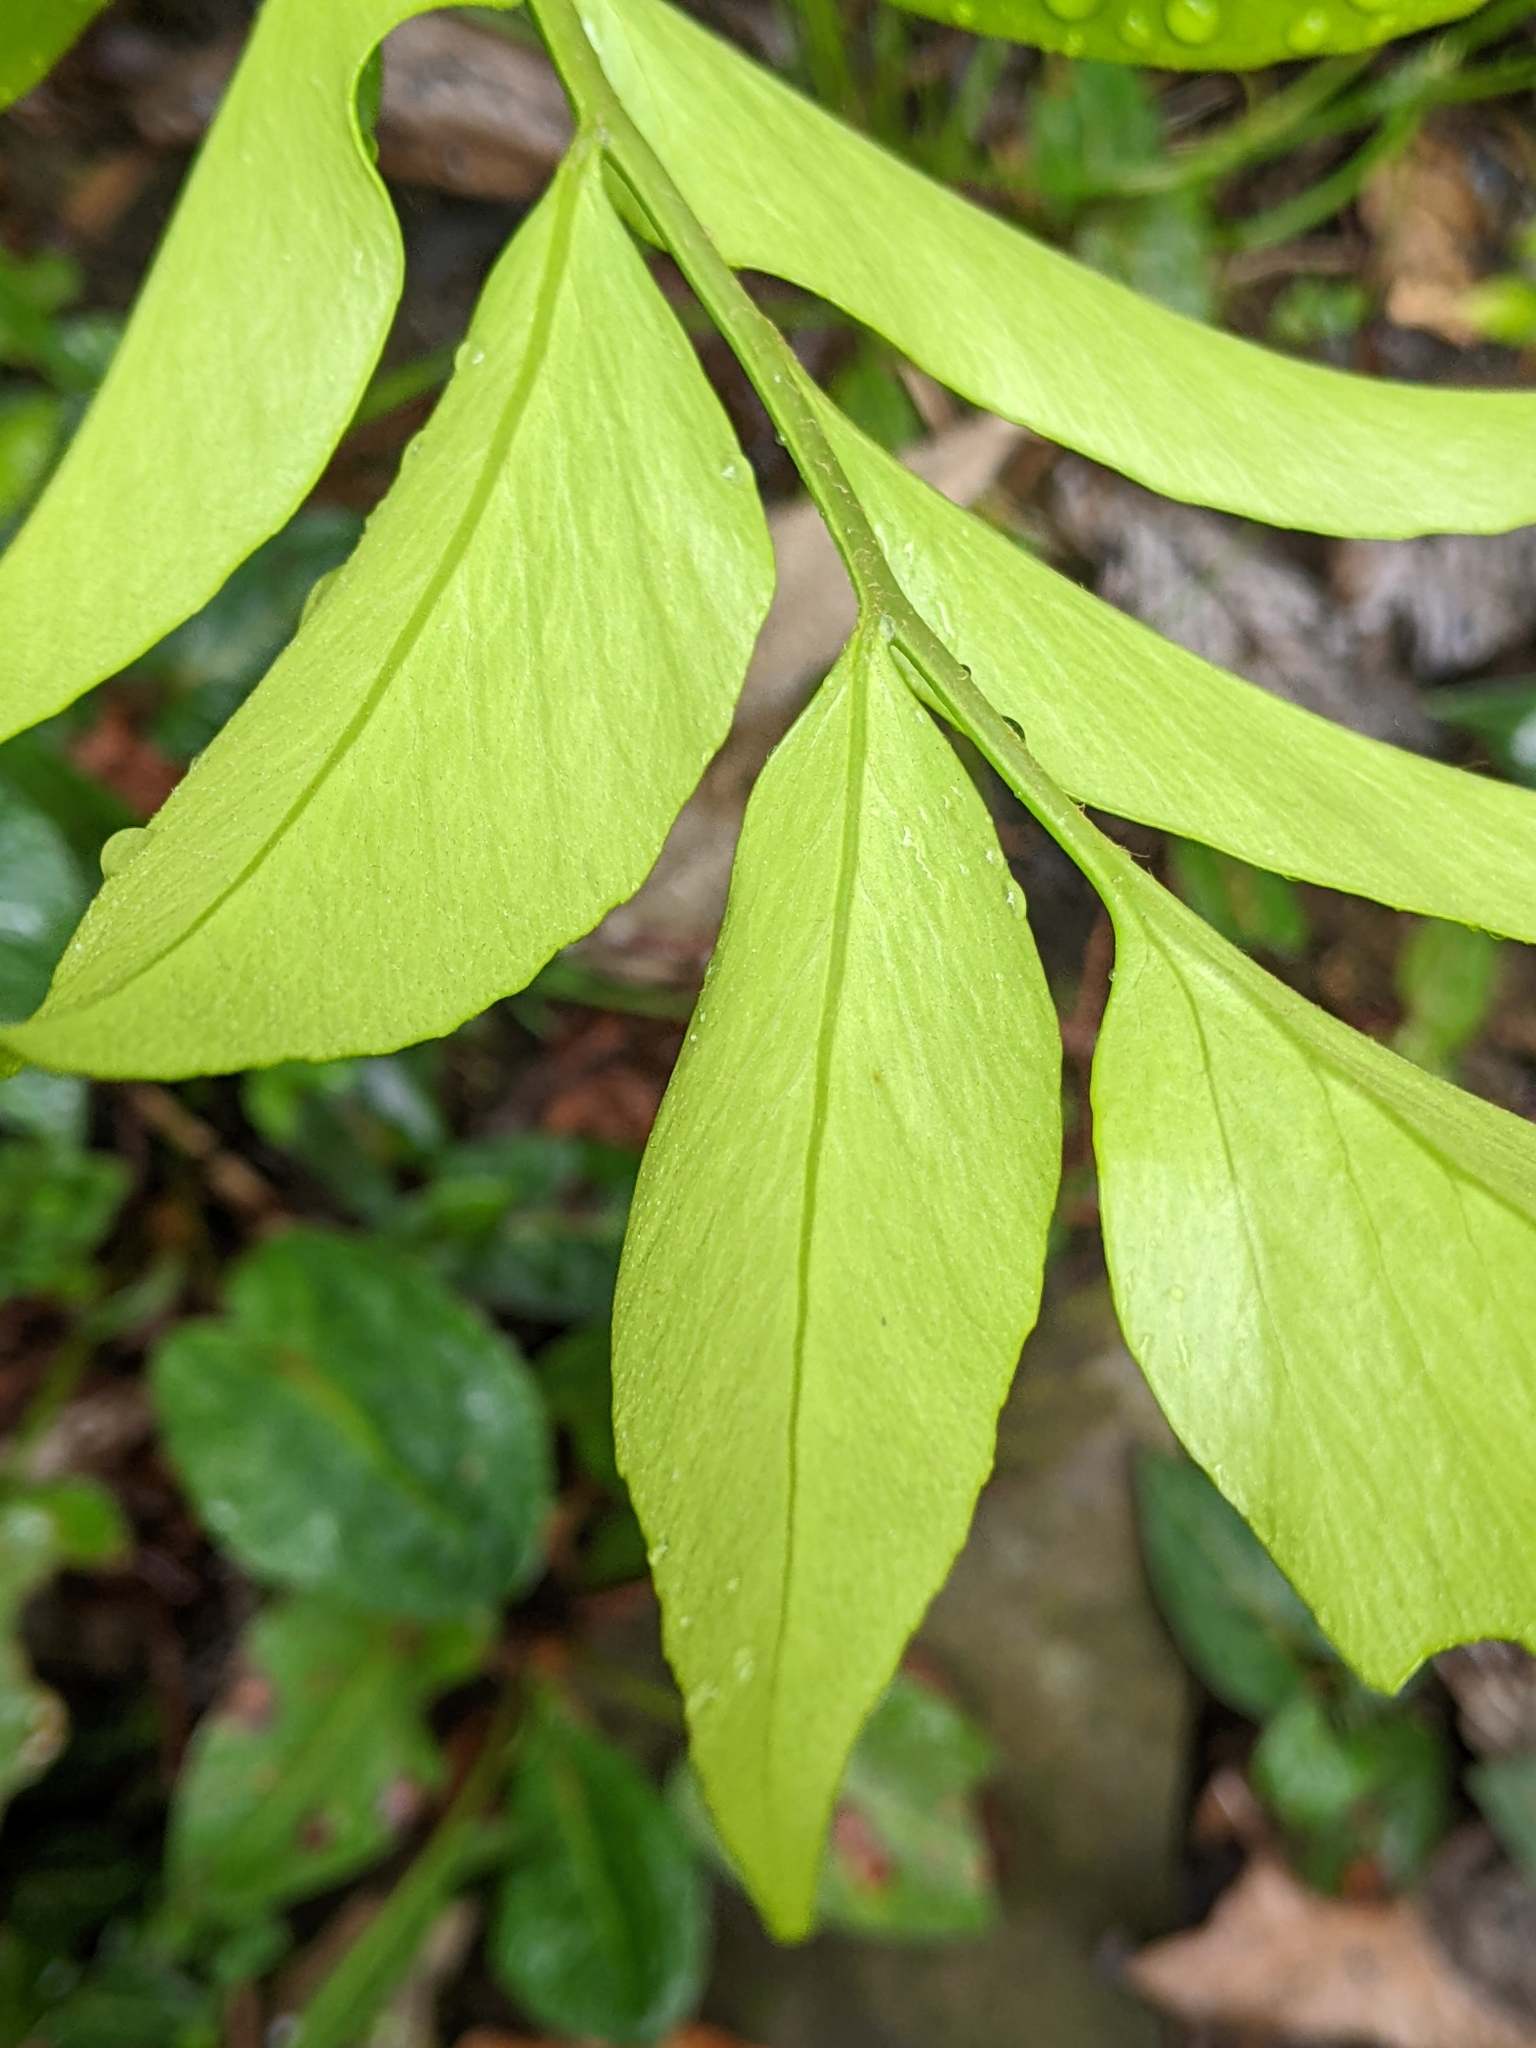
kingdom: Plantae
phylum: Tracheophyta
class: Polypodiopsida
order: Polypodiales
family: Dryopteridaceae
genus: Cyrtomium
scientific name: Cyrtomium devexiscapulae
